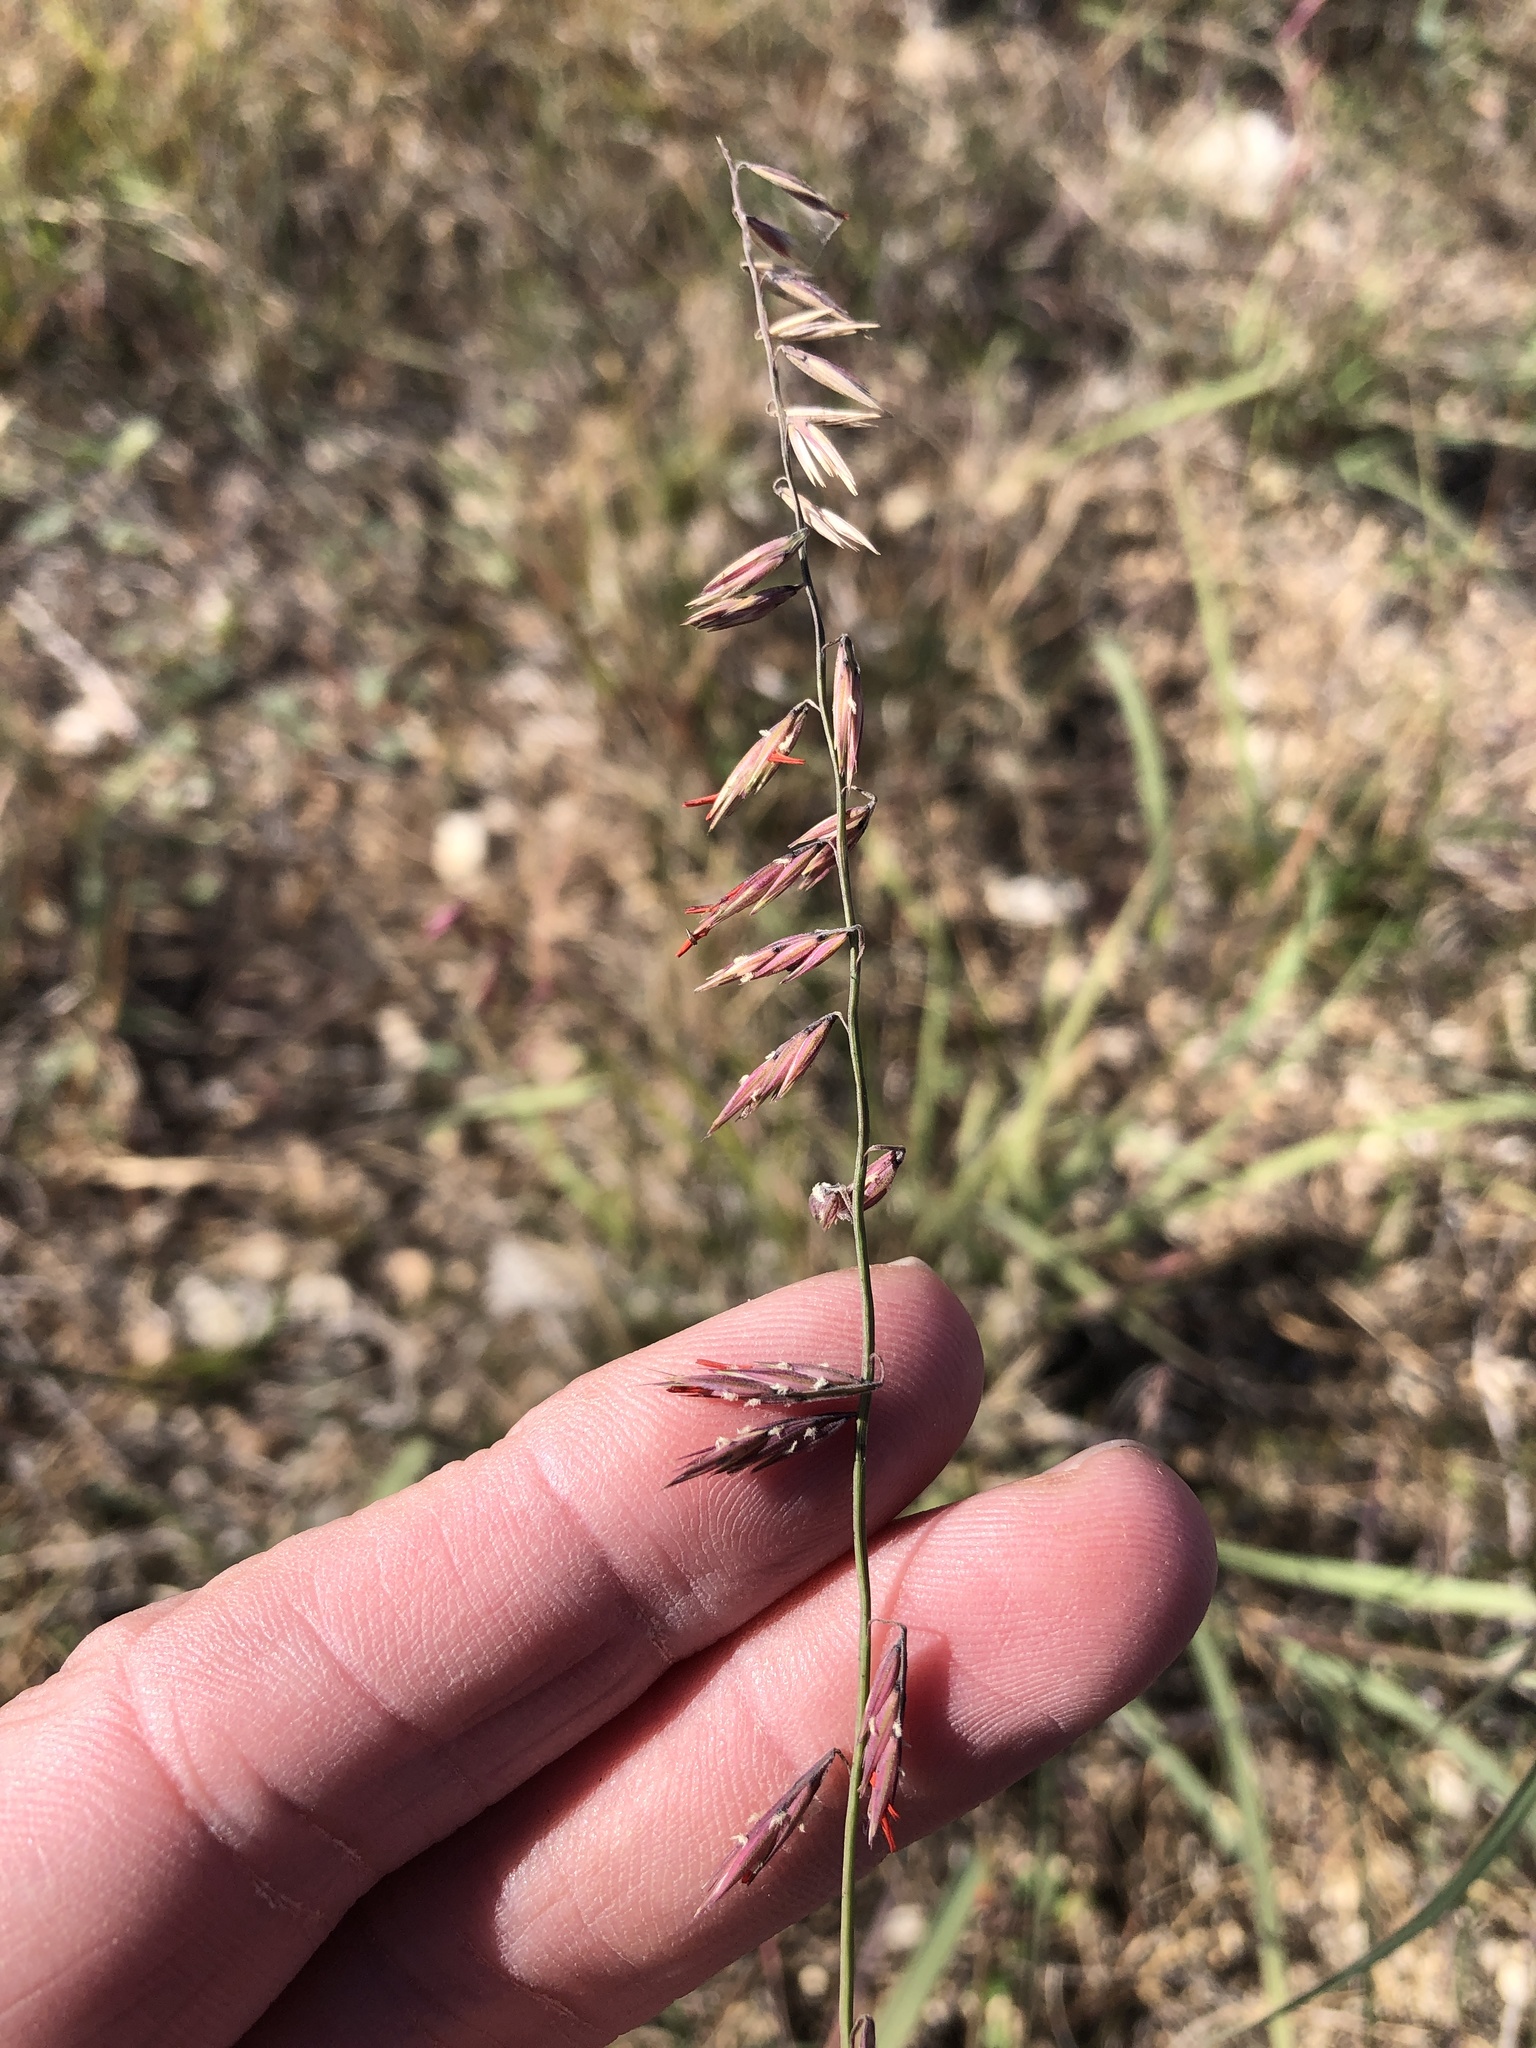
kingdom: Plantae
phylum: Tracheophyta
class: Liliopsida
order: Poales
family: Poaceae
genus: Bouteloua
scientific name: Bouteloua curtipendula
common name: Side-oats grama
